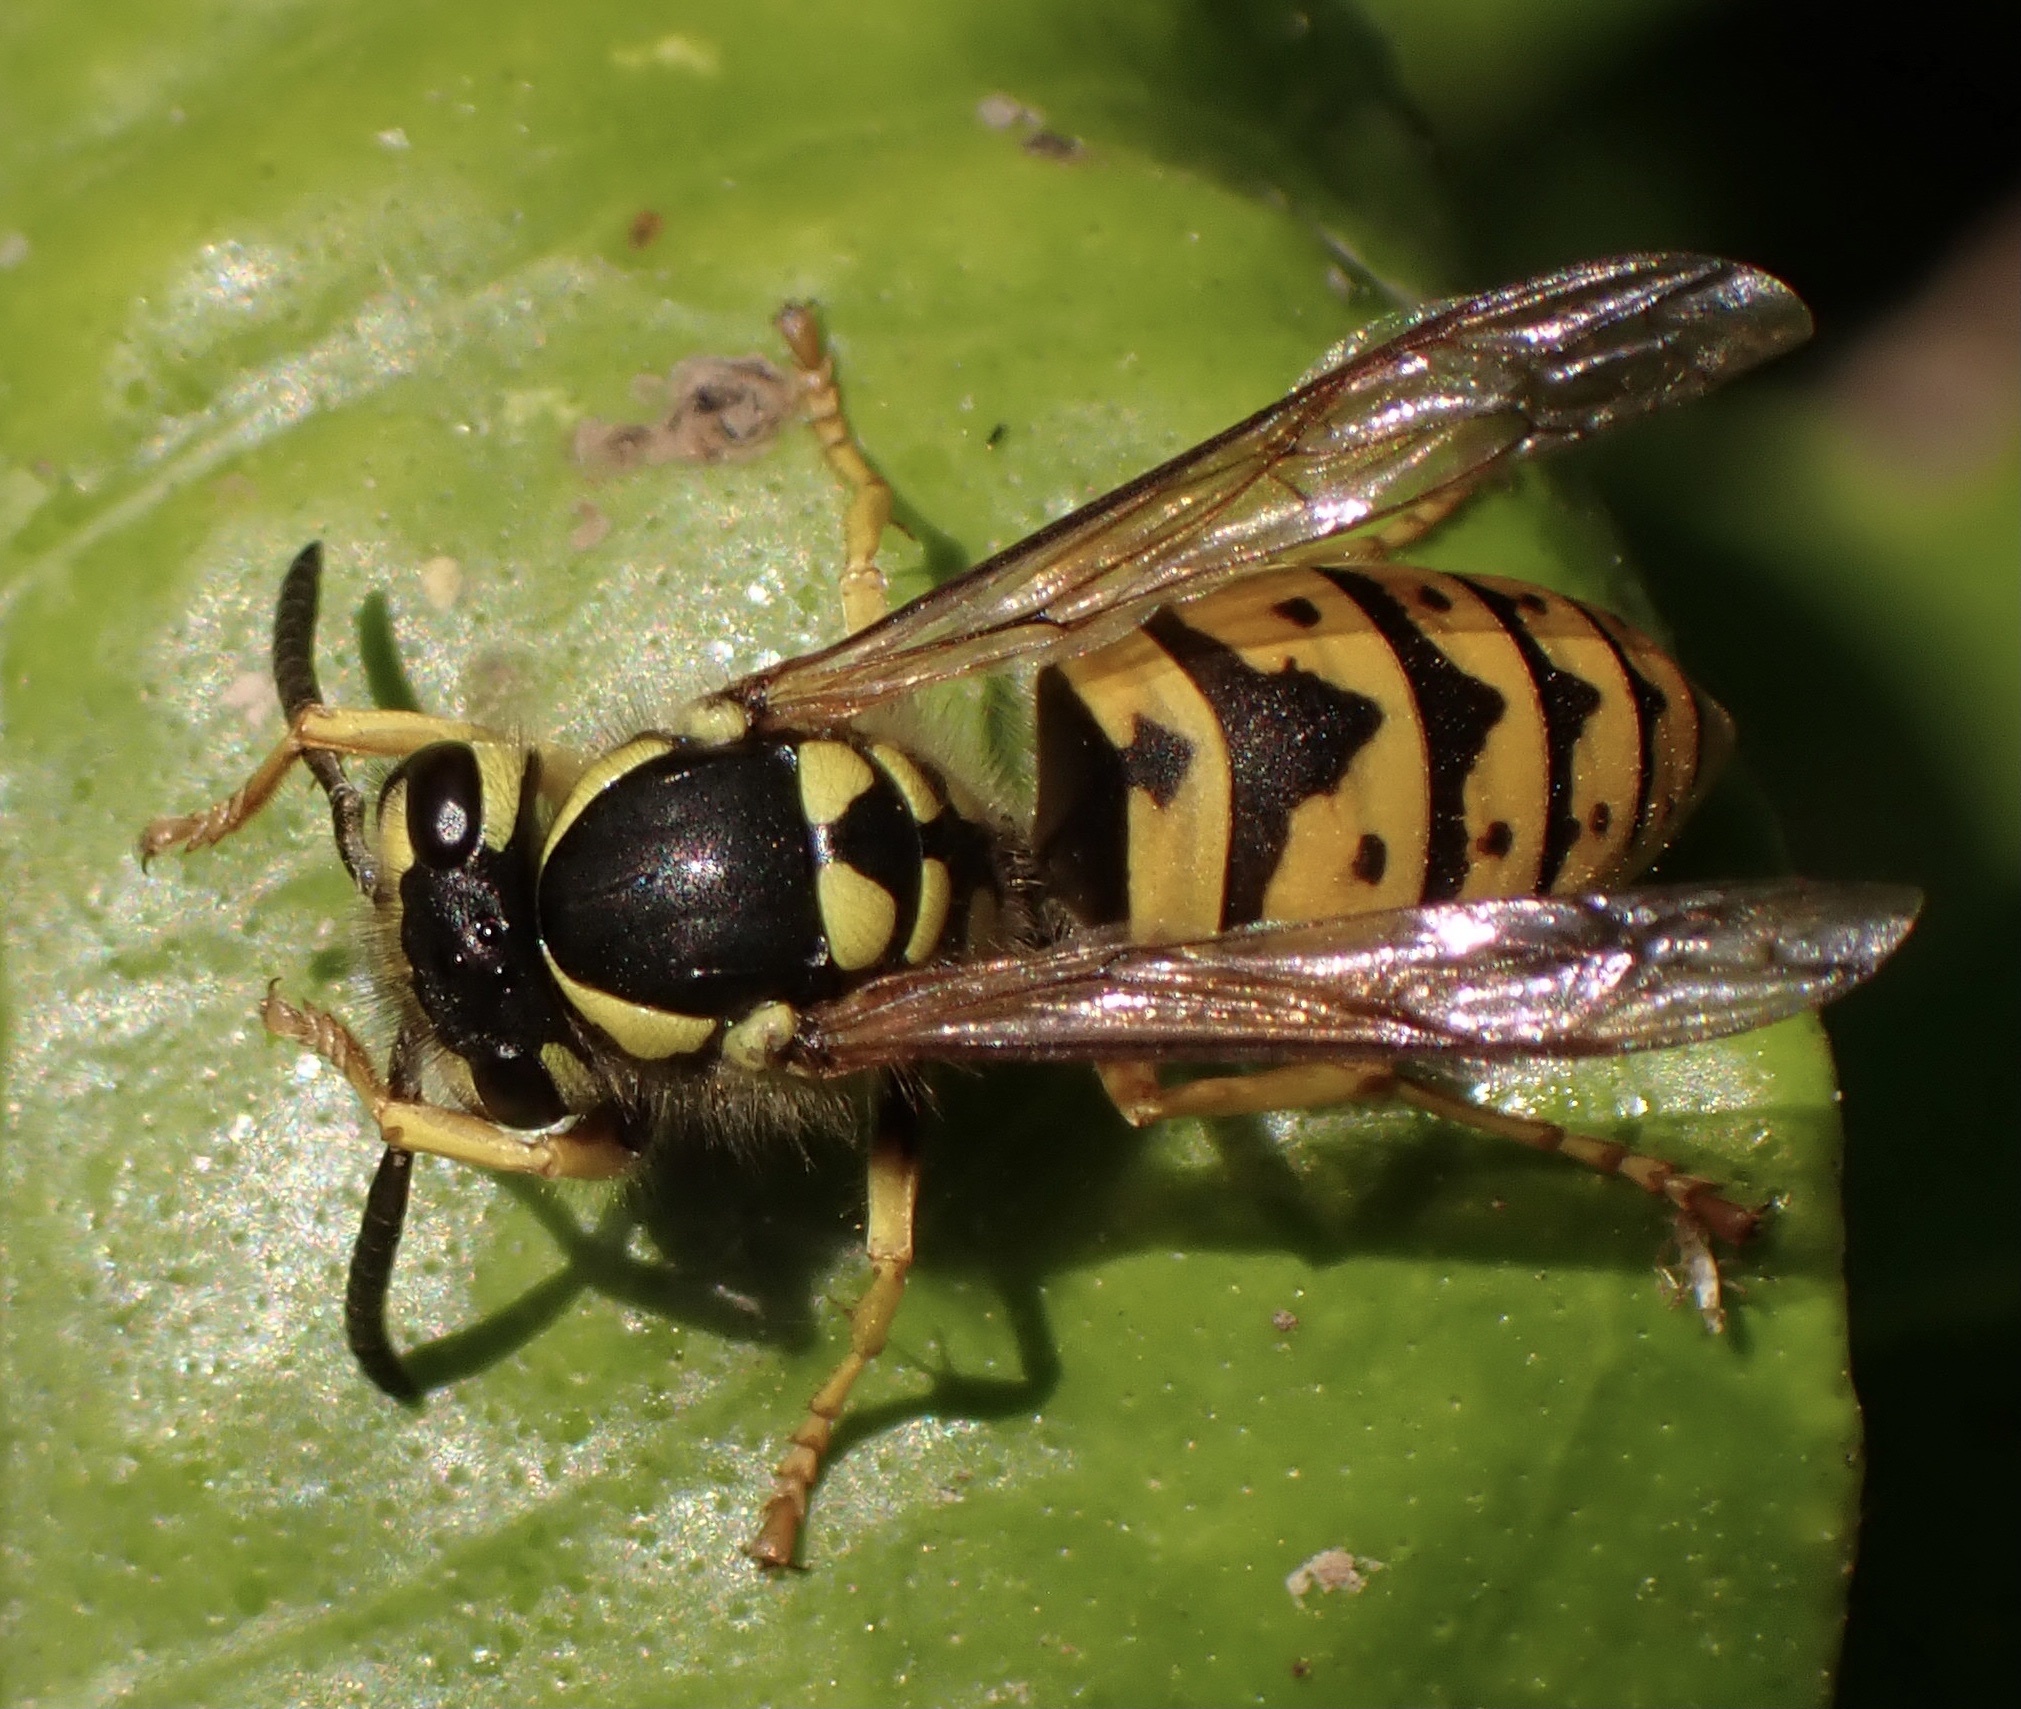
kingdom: Animalia
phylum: Arthropoda
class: Insecta
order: Hymenoptera
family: Vespidae
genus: Vespula
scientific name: Vespula germanica
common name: German wasp
